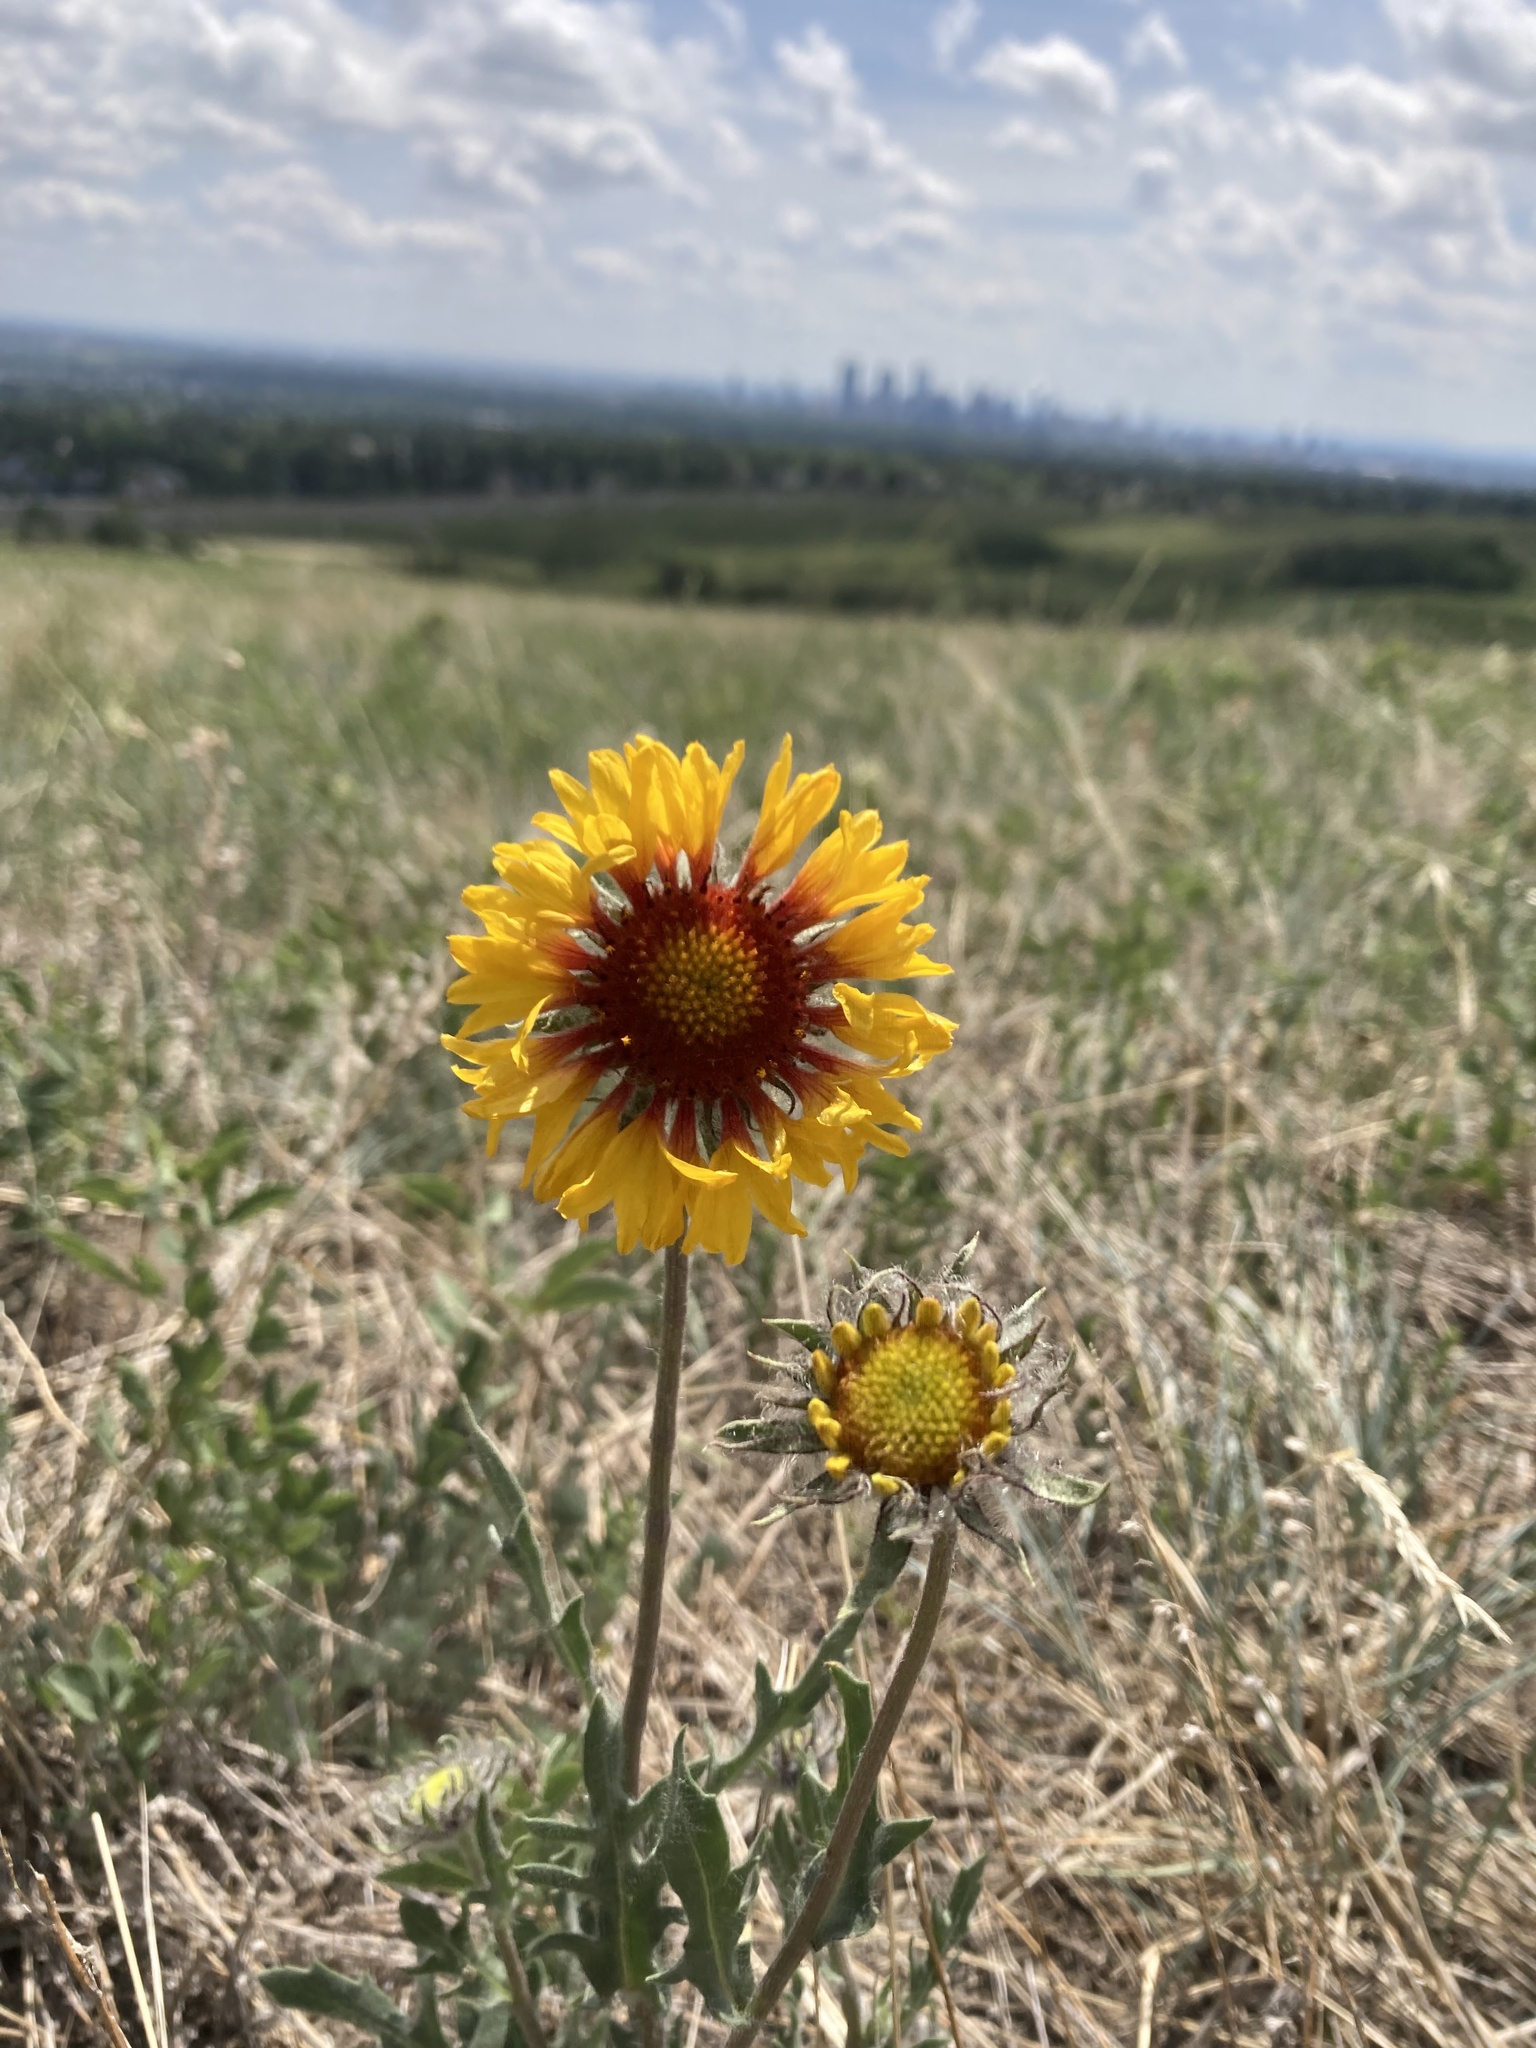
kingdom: Plantae
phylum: Tracheophyta
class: Magnoliopsida
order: Asterales
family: Asteraceae
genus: Gaillardia
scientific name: Gaillardia aristata
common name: Blanket-flower
